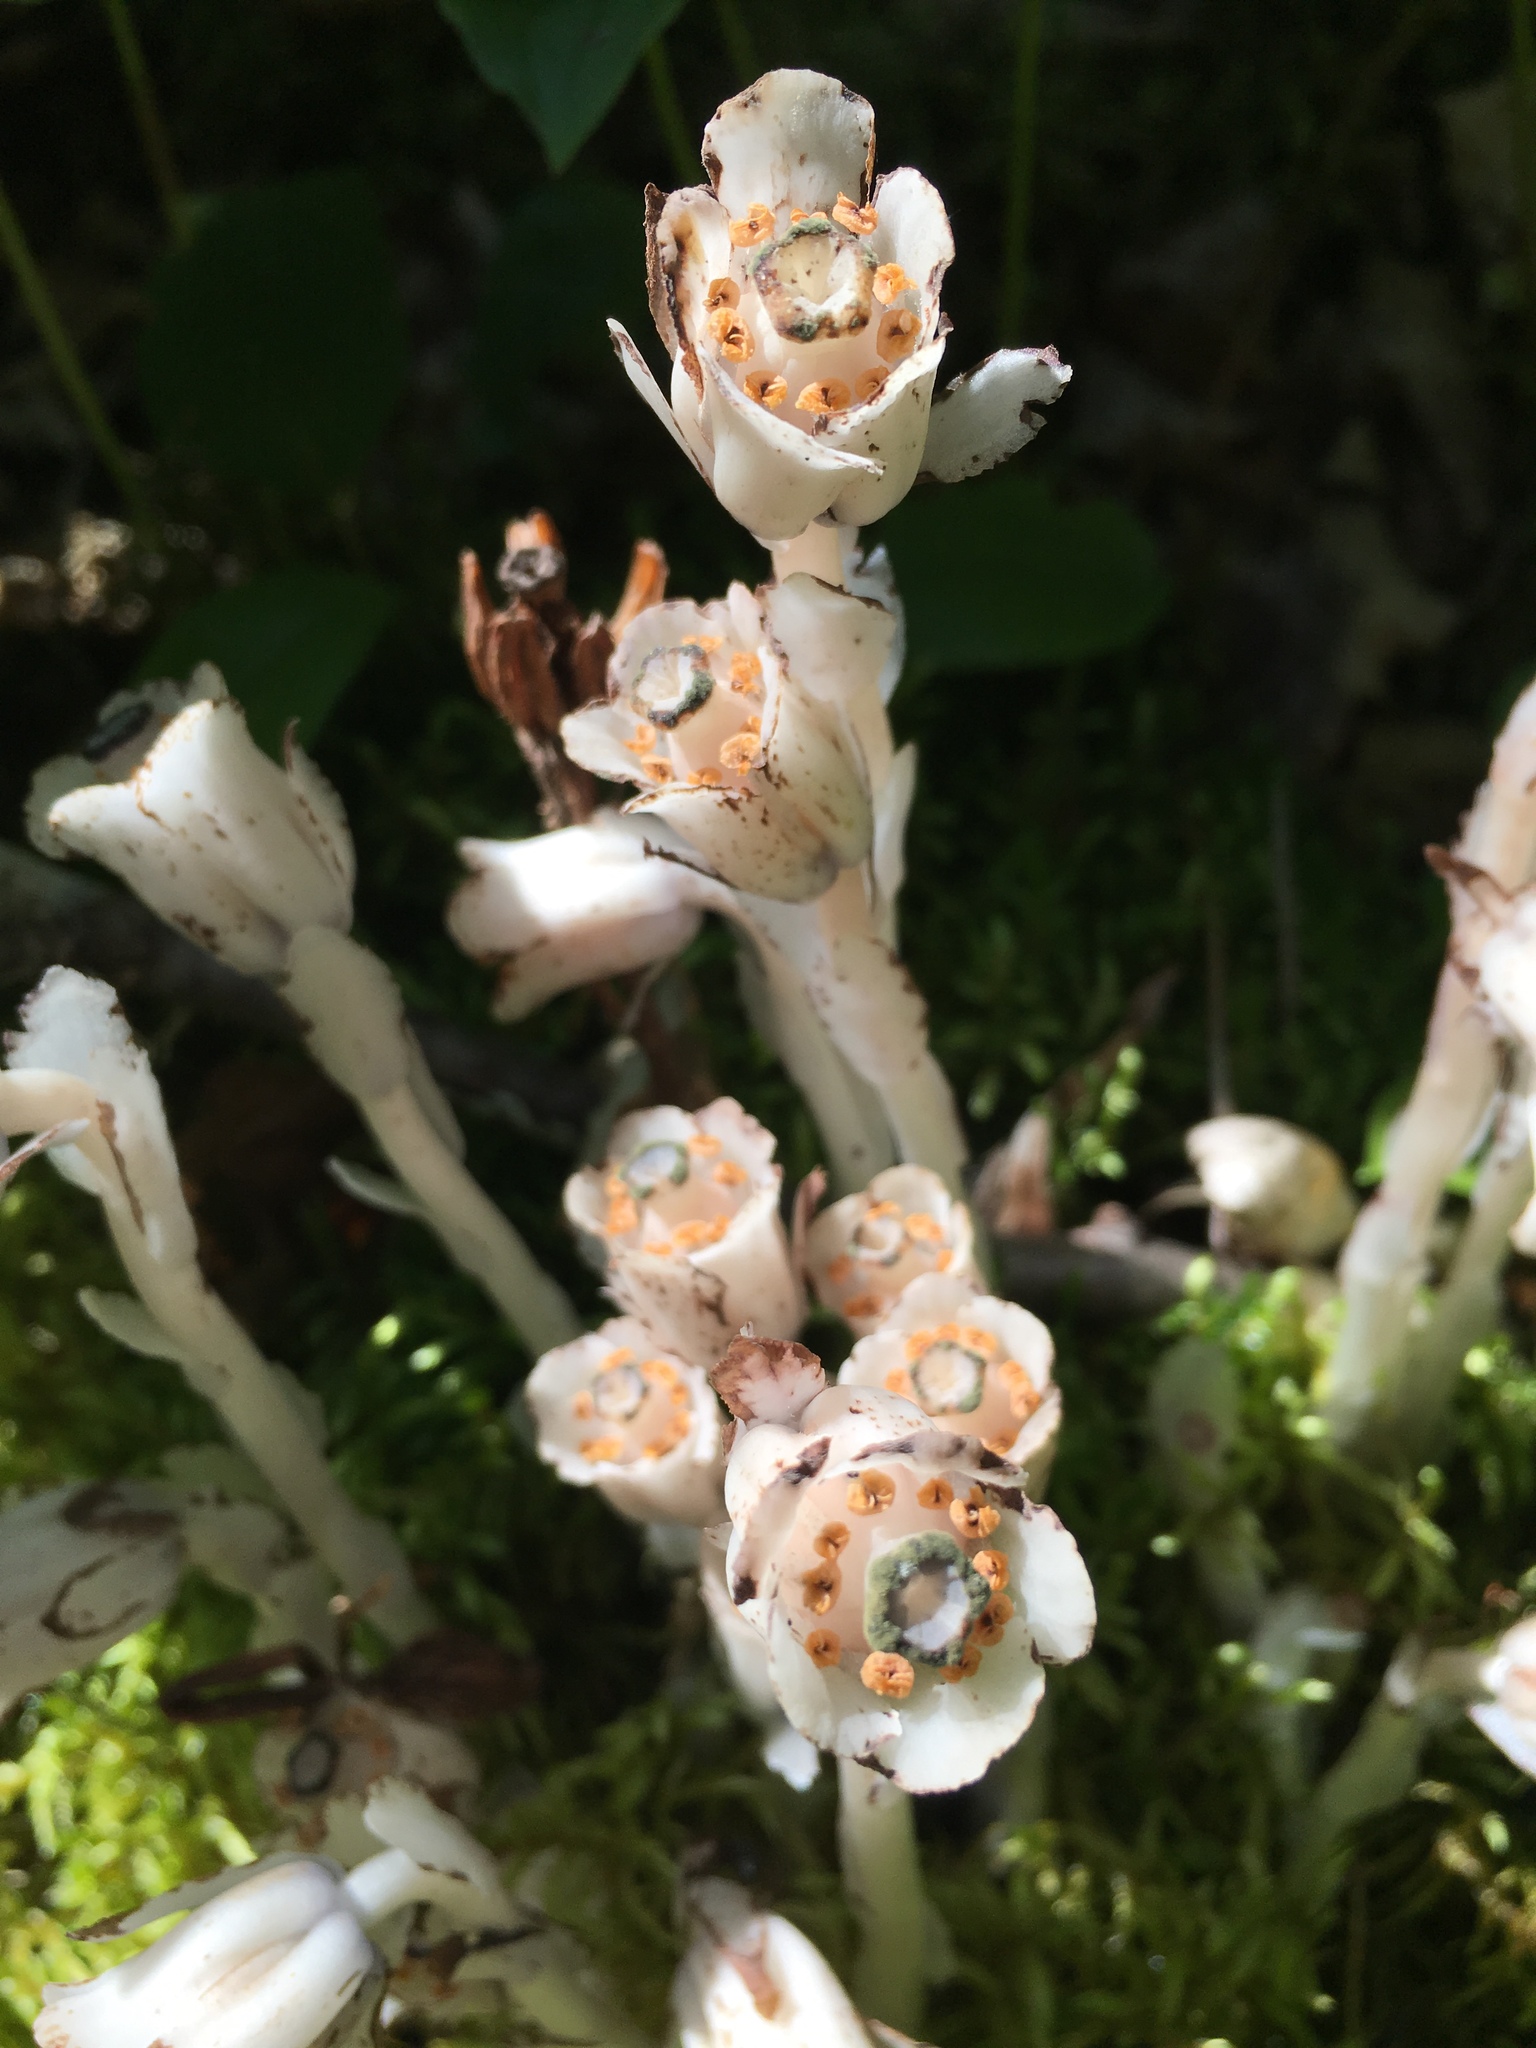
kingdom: Plantae
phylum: Tracheophyta
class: Magnoliopsida
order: Ericales
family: Ericaceae
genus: Monotropa
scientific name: Monotropa uniflora
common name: Convulsion root
